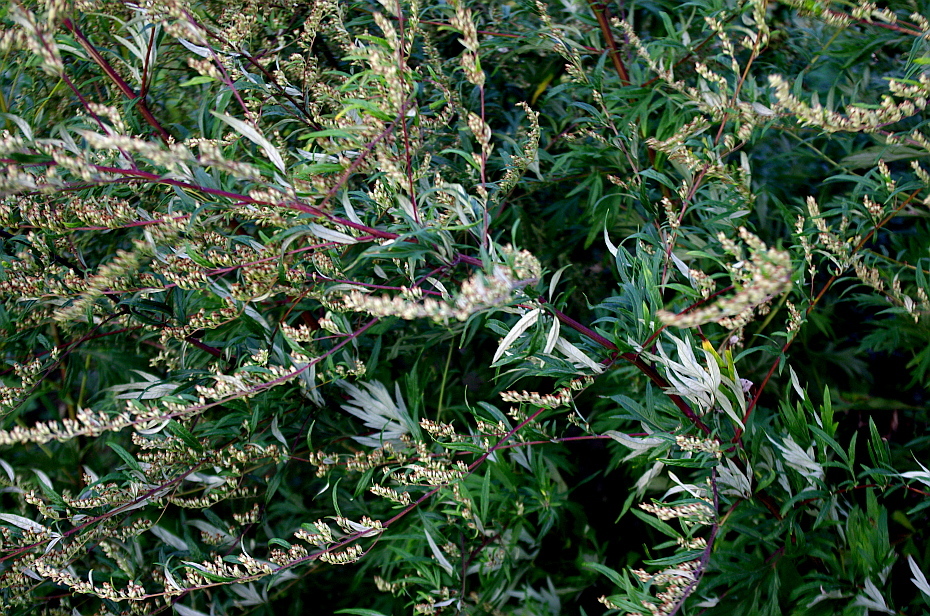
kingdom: Plantae
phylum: Tracheophyta
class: Magnoliopsida
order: Asterales
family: Asteraceae
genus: Artemisia
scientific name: Artemisia vulgaris
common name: Mugwort
